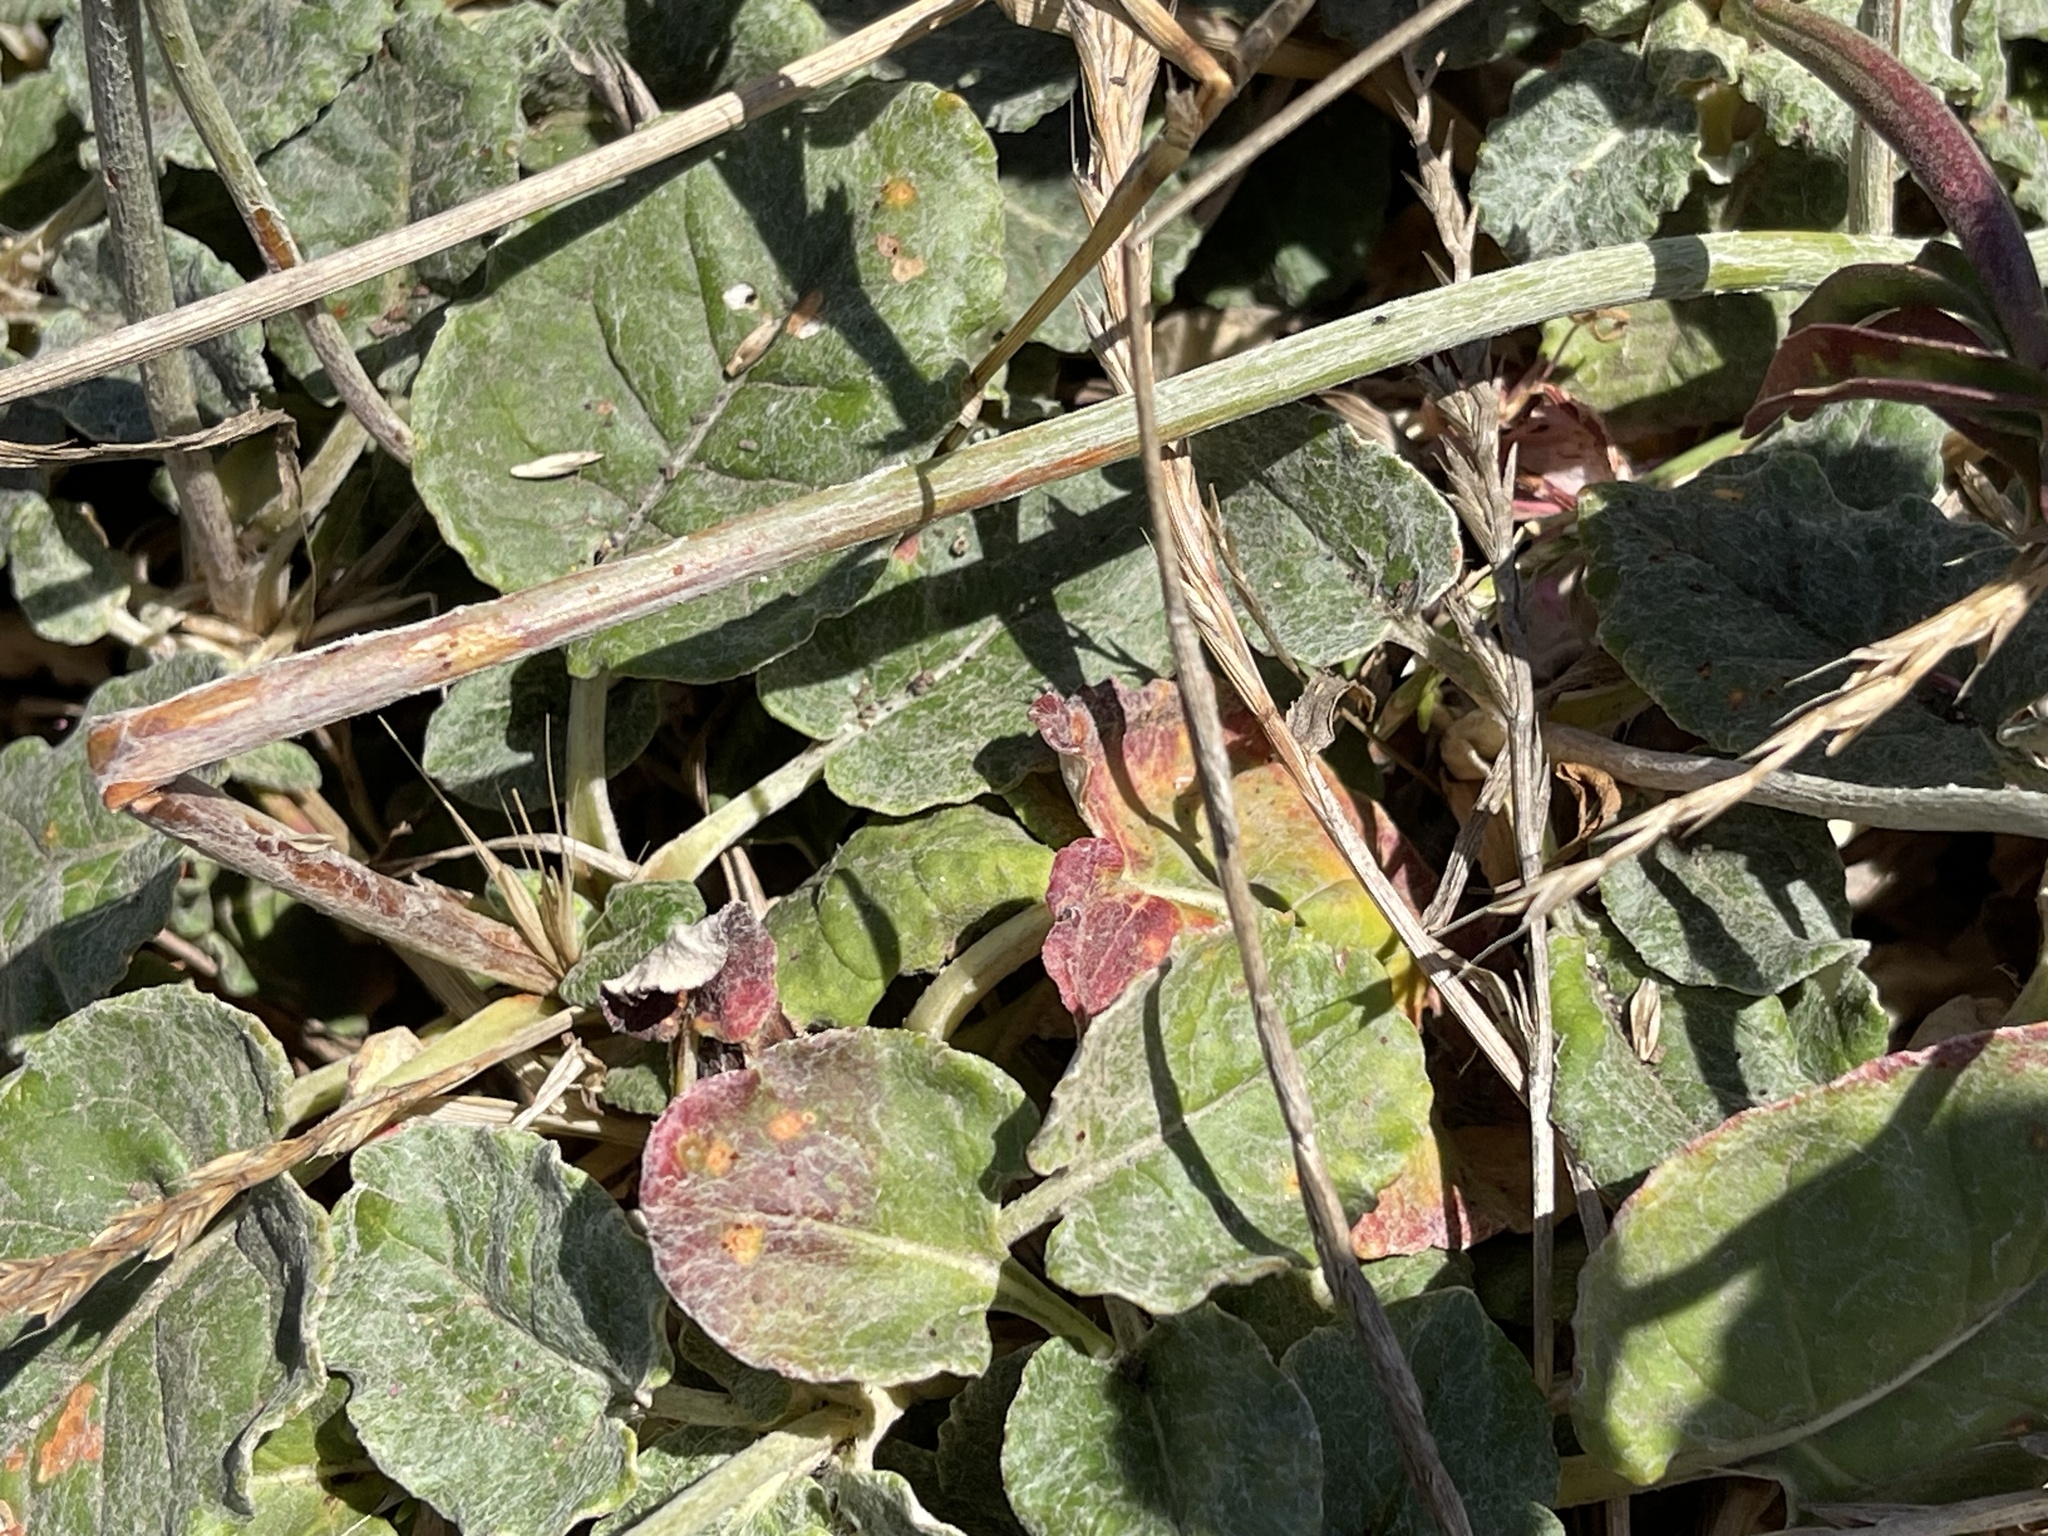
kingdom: Plantae
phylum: Tracheophyta
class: Magnoliopsida
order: Caryophyllales
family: Polygonaceae
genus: Eriogonum
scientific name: Eriogonum latifolium
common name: Seaside wild buckwheat
